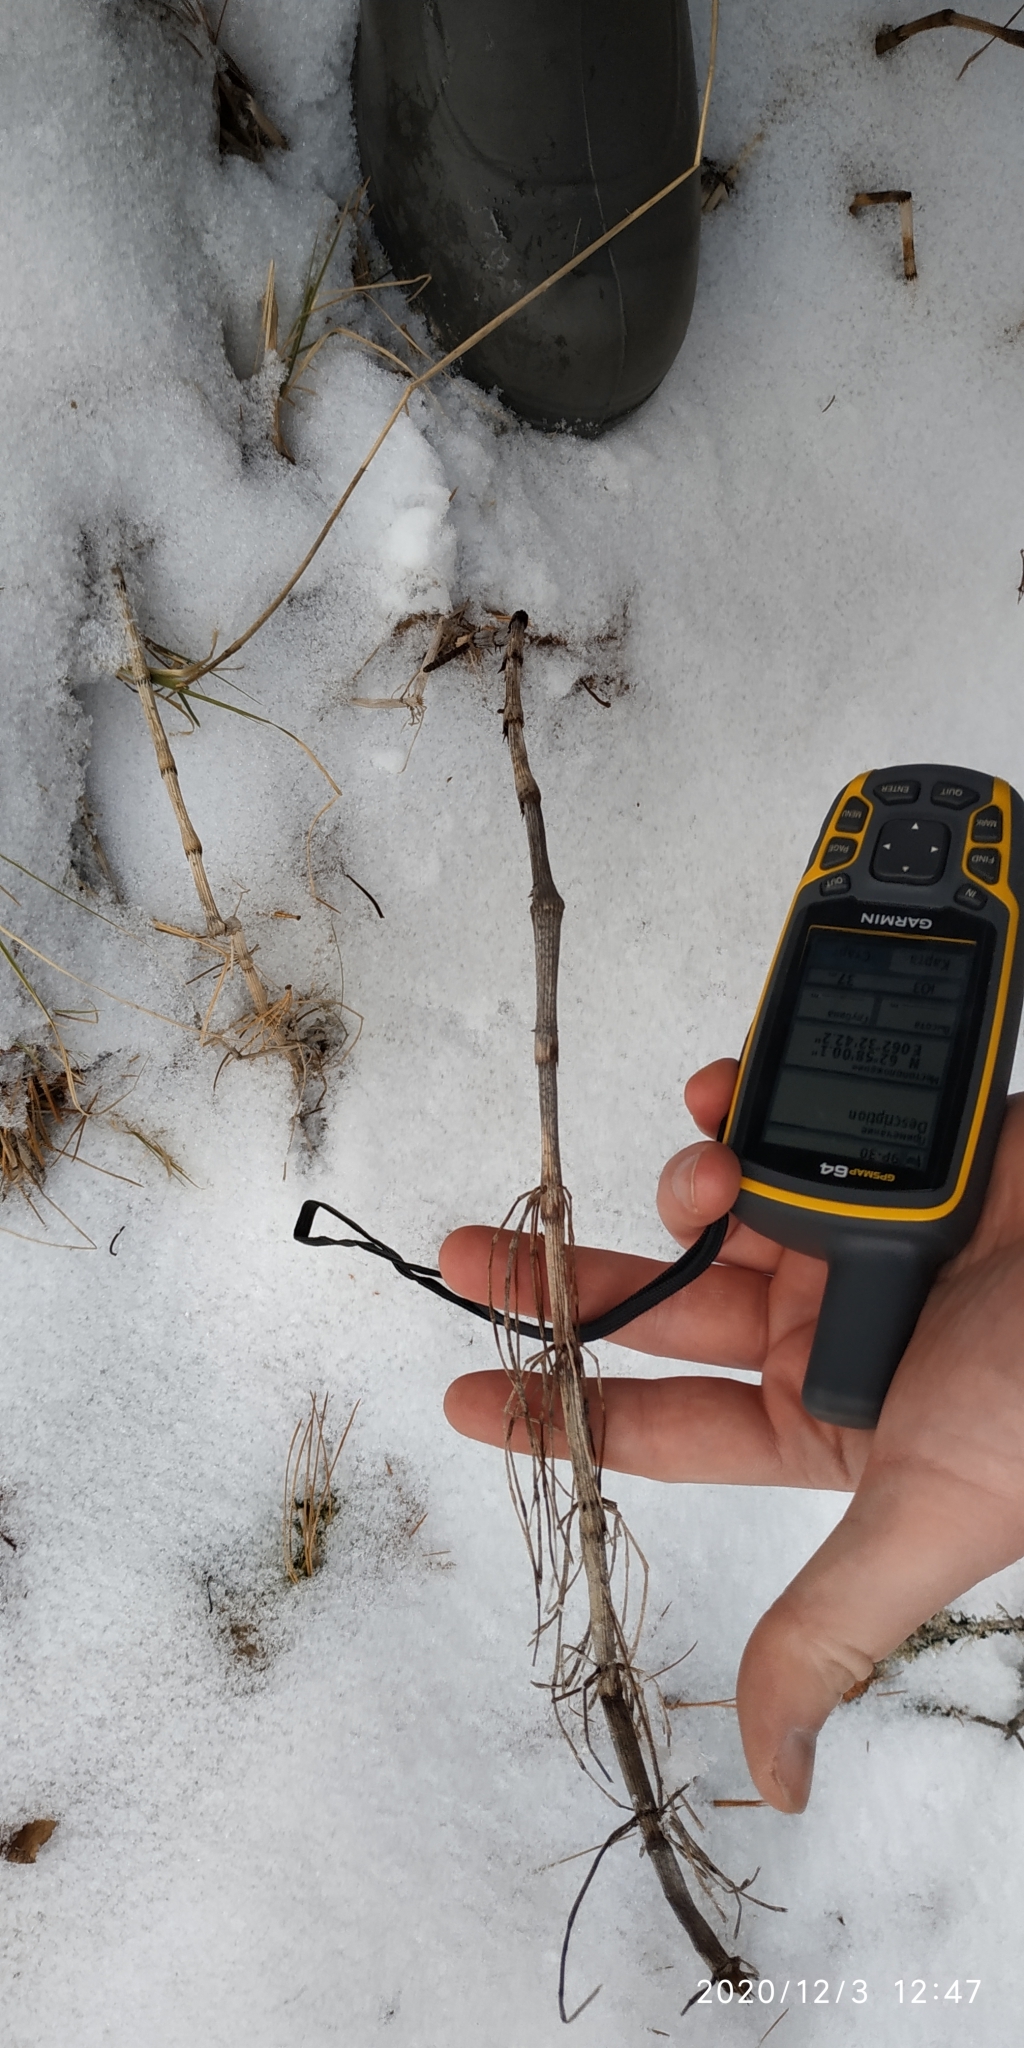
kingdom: Plantae
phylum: Tracheophyta
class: Polypodiopsida
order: Equisetales
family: Equisetaceae
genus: Equisetum
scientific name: Equisetum fluviatile
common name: Water horsetail
